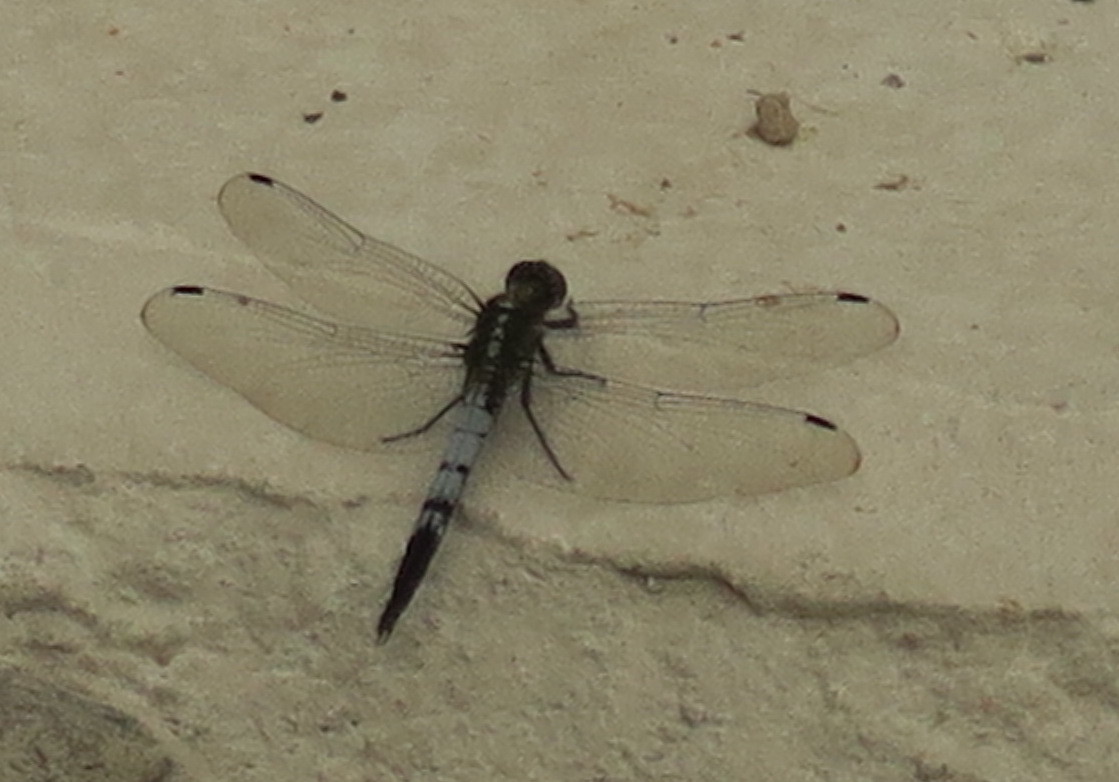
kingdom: Animalia
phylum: Arthropoda
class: Insecta
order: Odonata
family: Libellulidae
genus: Orthetrum
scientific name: Orthetrum albistylum
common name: White-tailed skimmer
